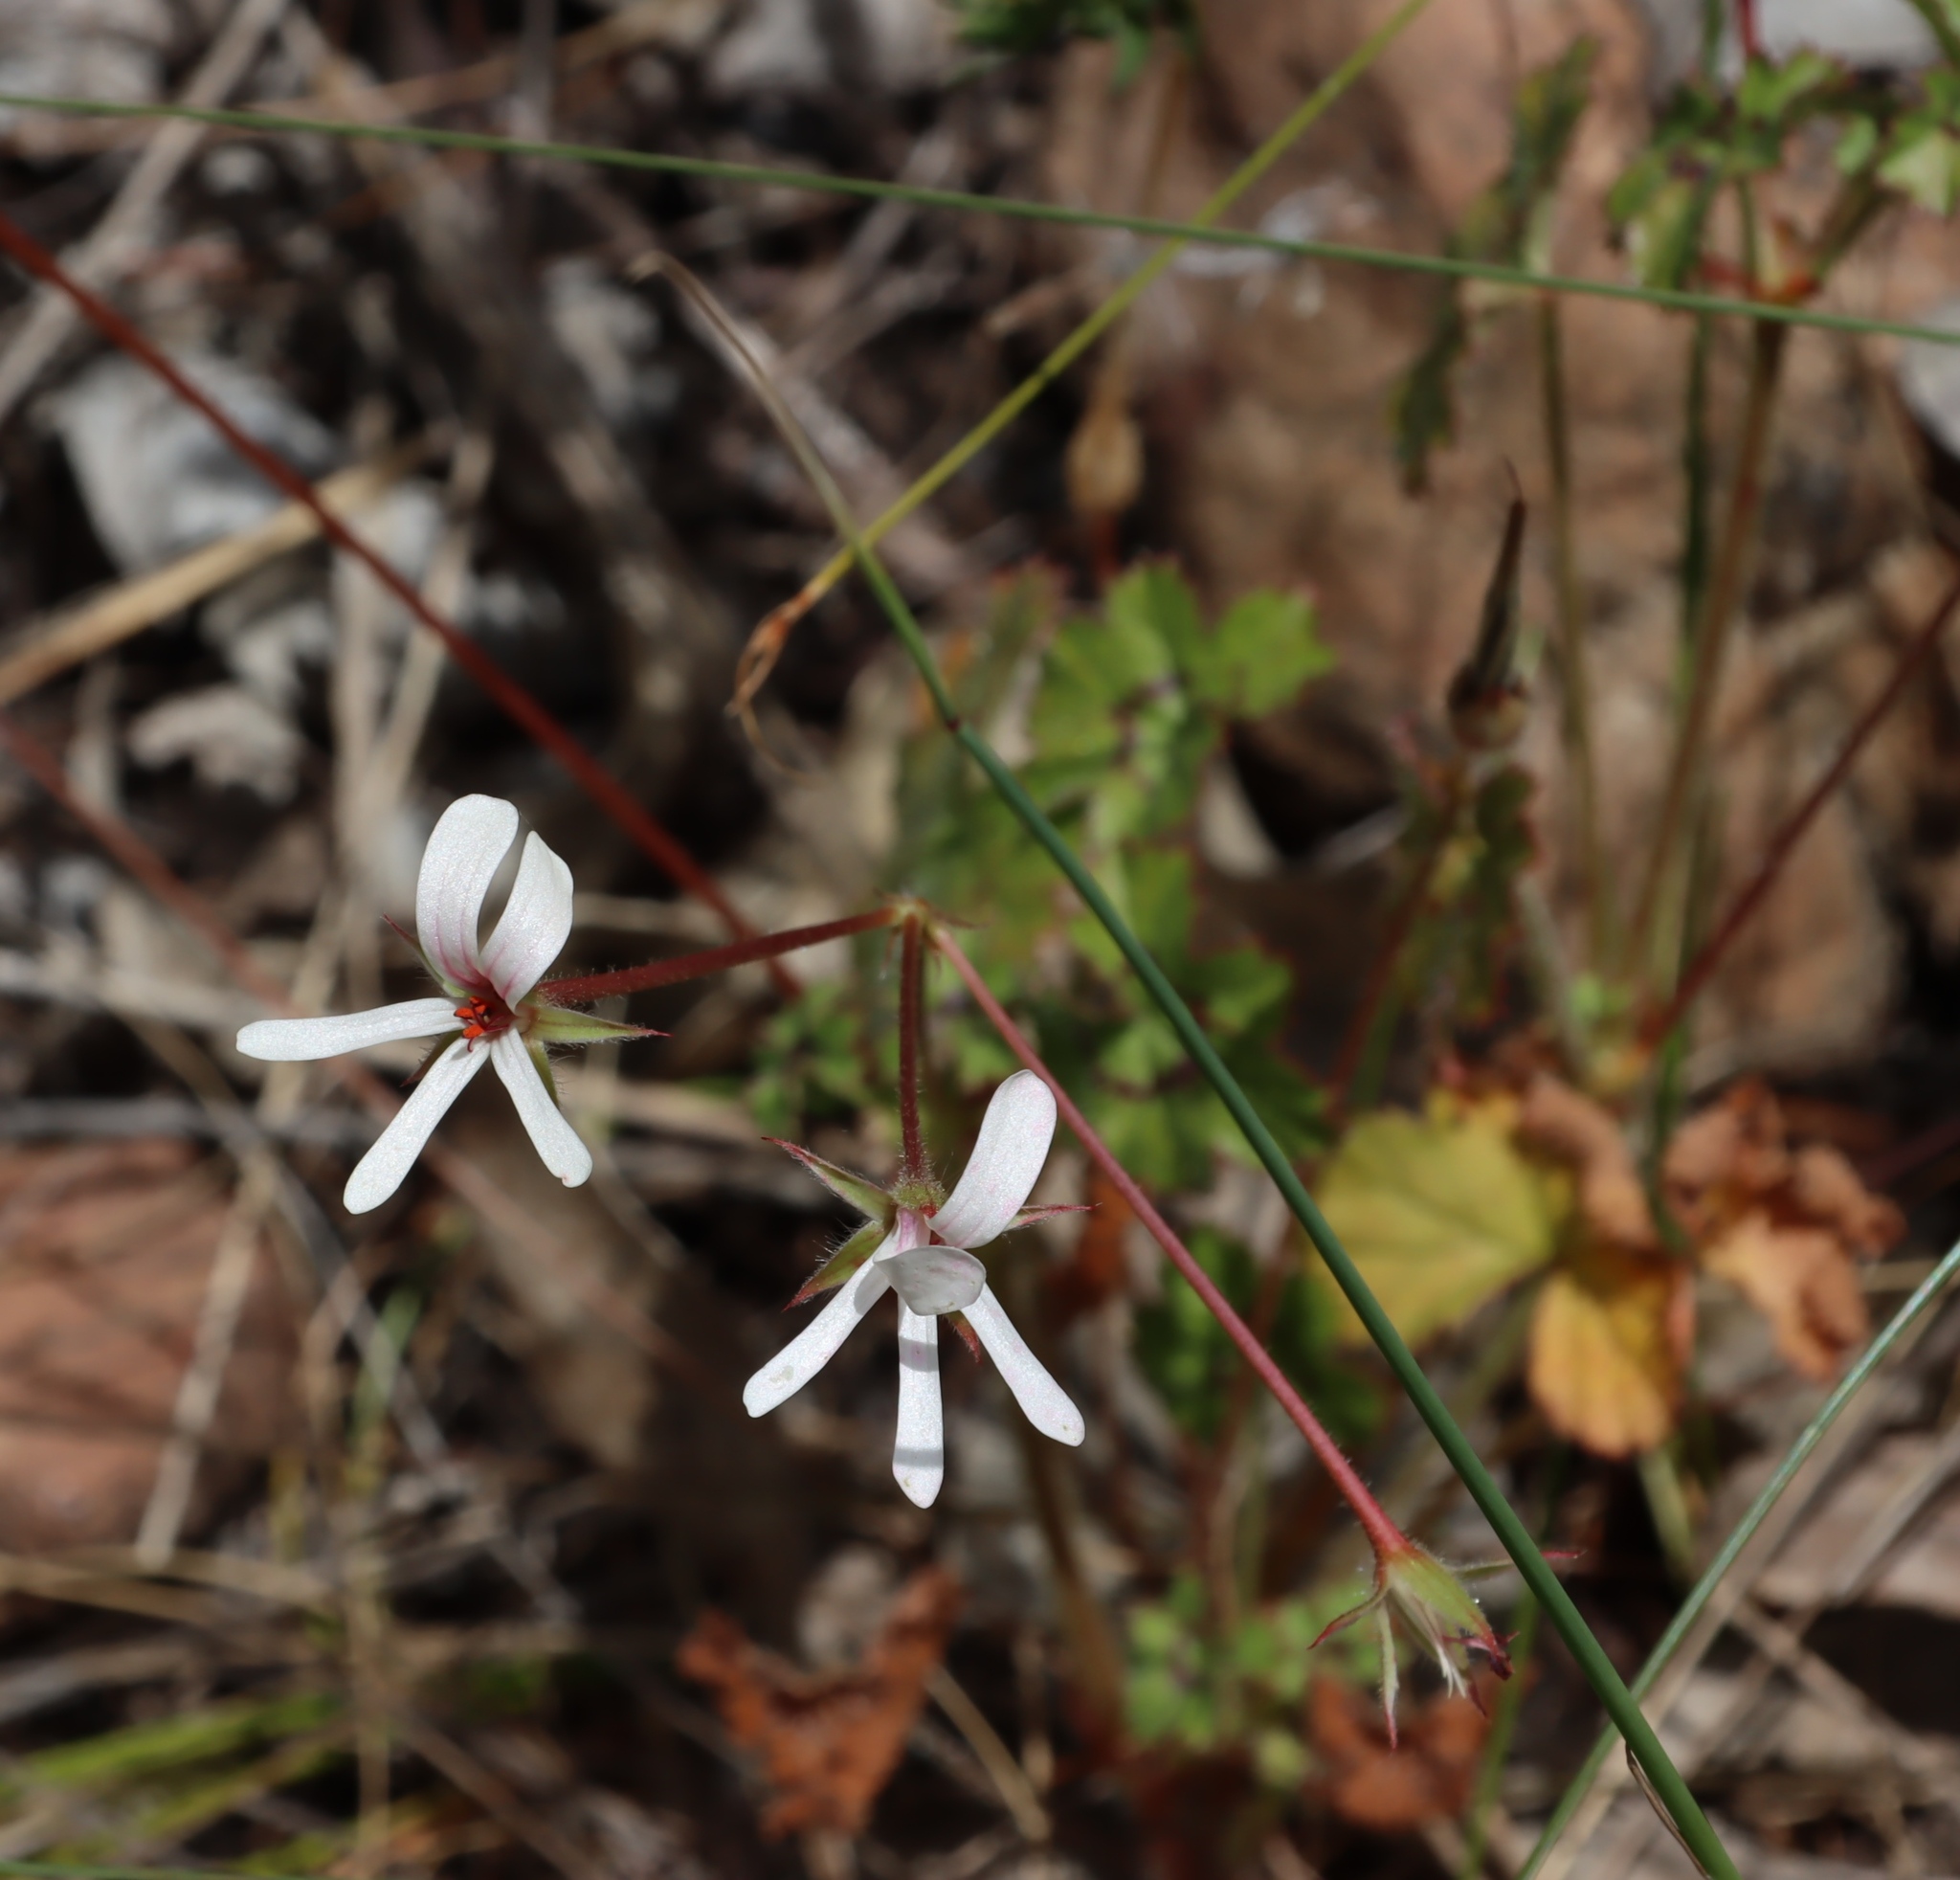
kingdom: Plantae
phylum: Tracheophyta
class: Magnoliopsida
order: Geraniales
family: Geraniaceae
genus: Pelargonium
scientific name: Pelargonium elongatum
